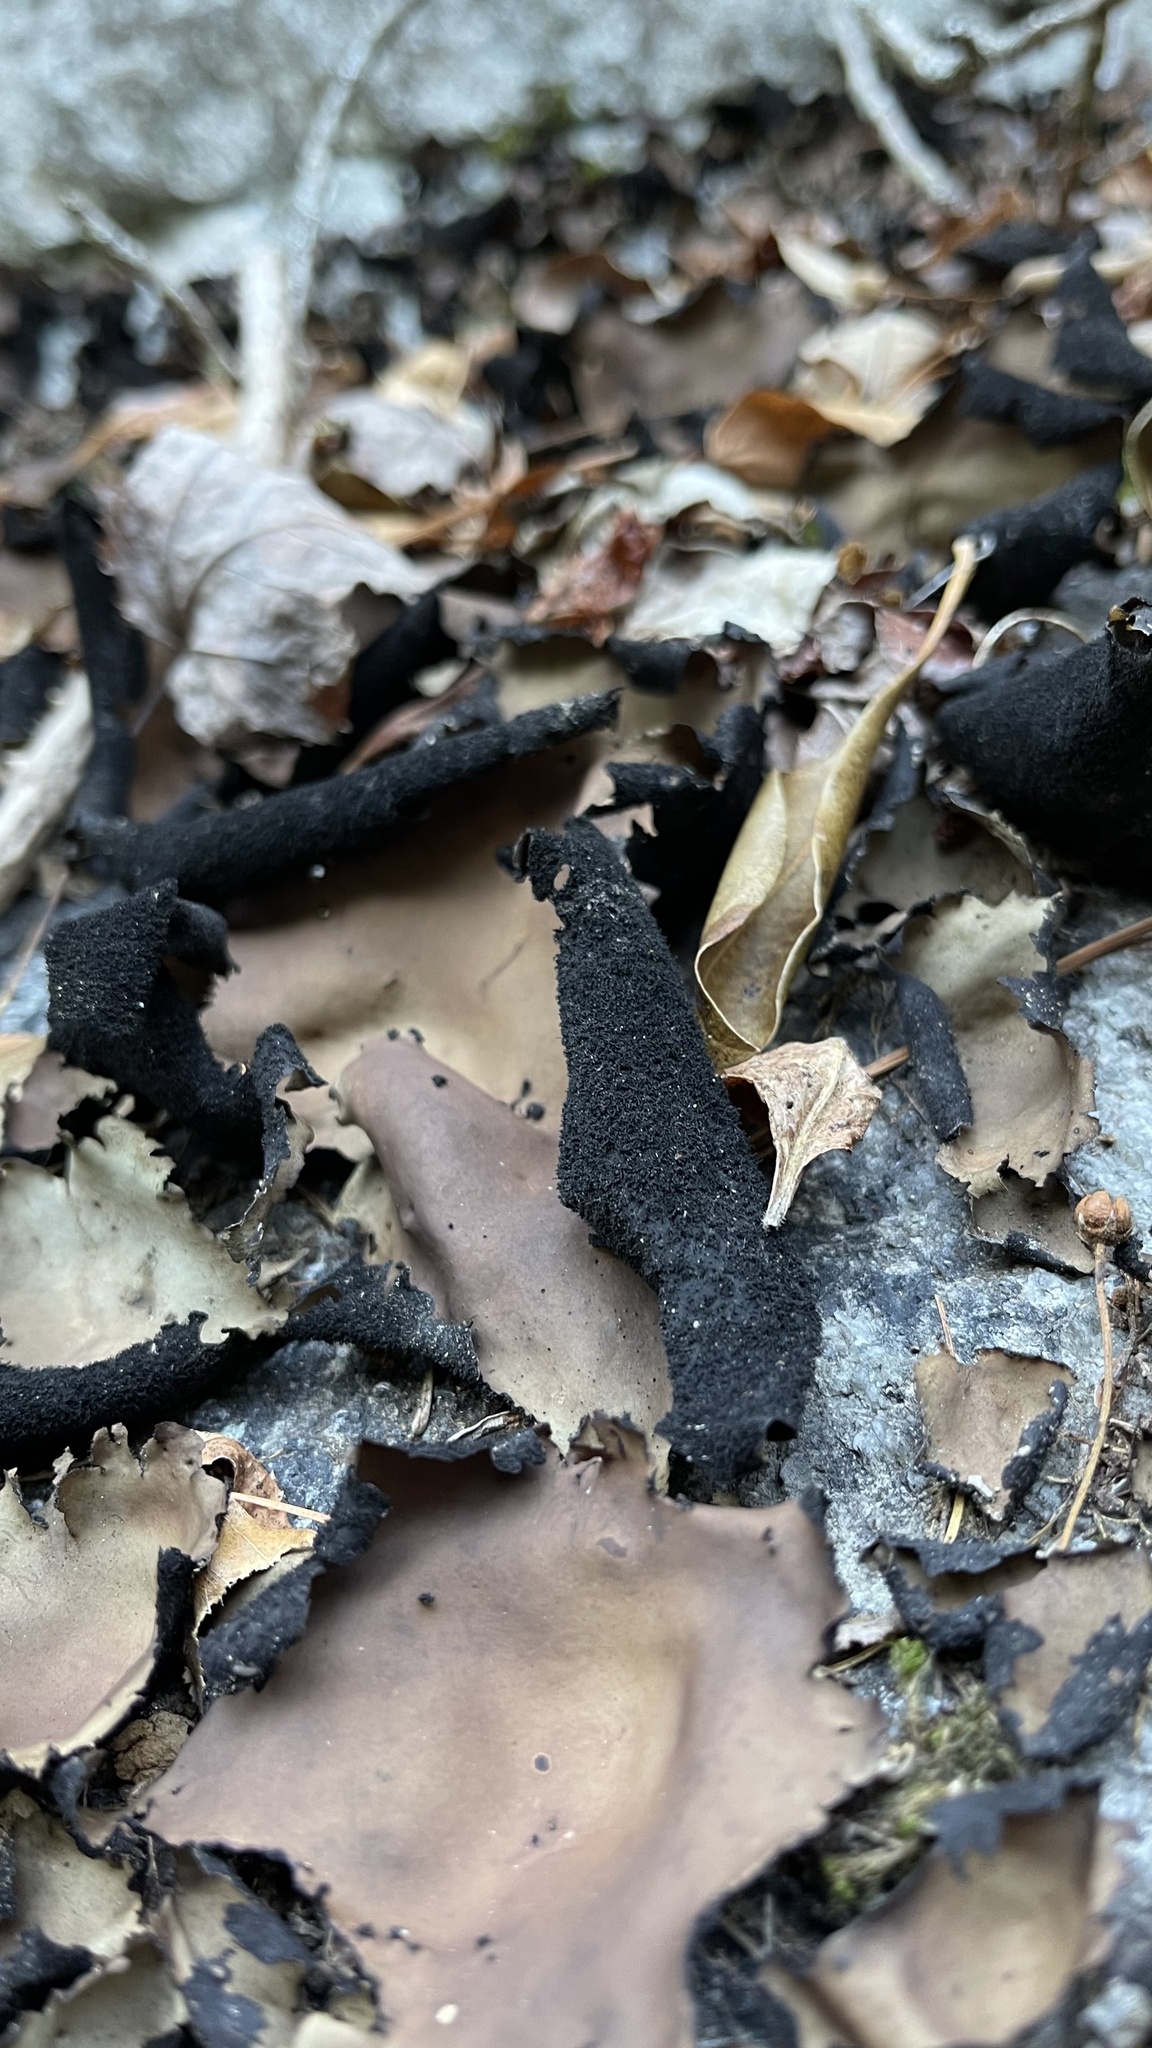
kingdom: Fungi
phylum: Ascomycota
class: Lecanoromycetes
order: Umbilicariales
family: Umbilicariaceae
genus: Umbilicaria
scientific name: Umbilicaria mammulata
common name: Smooth rock tripe
